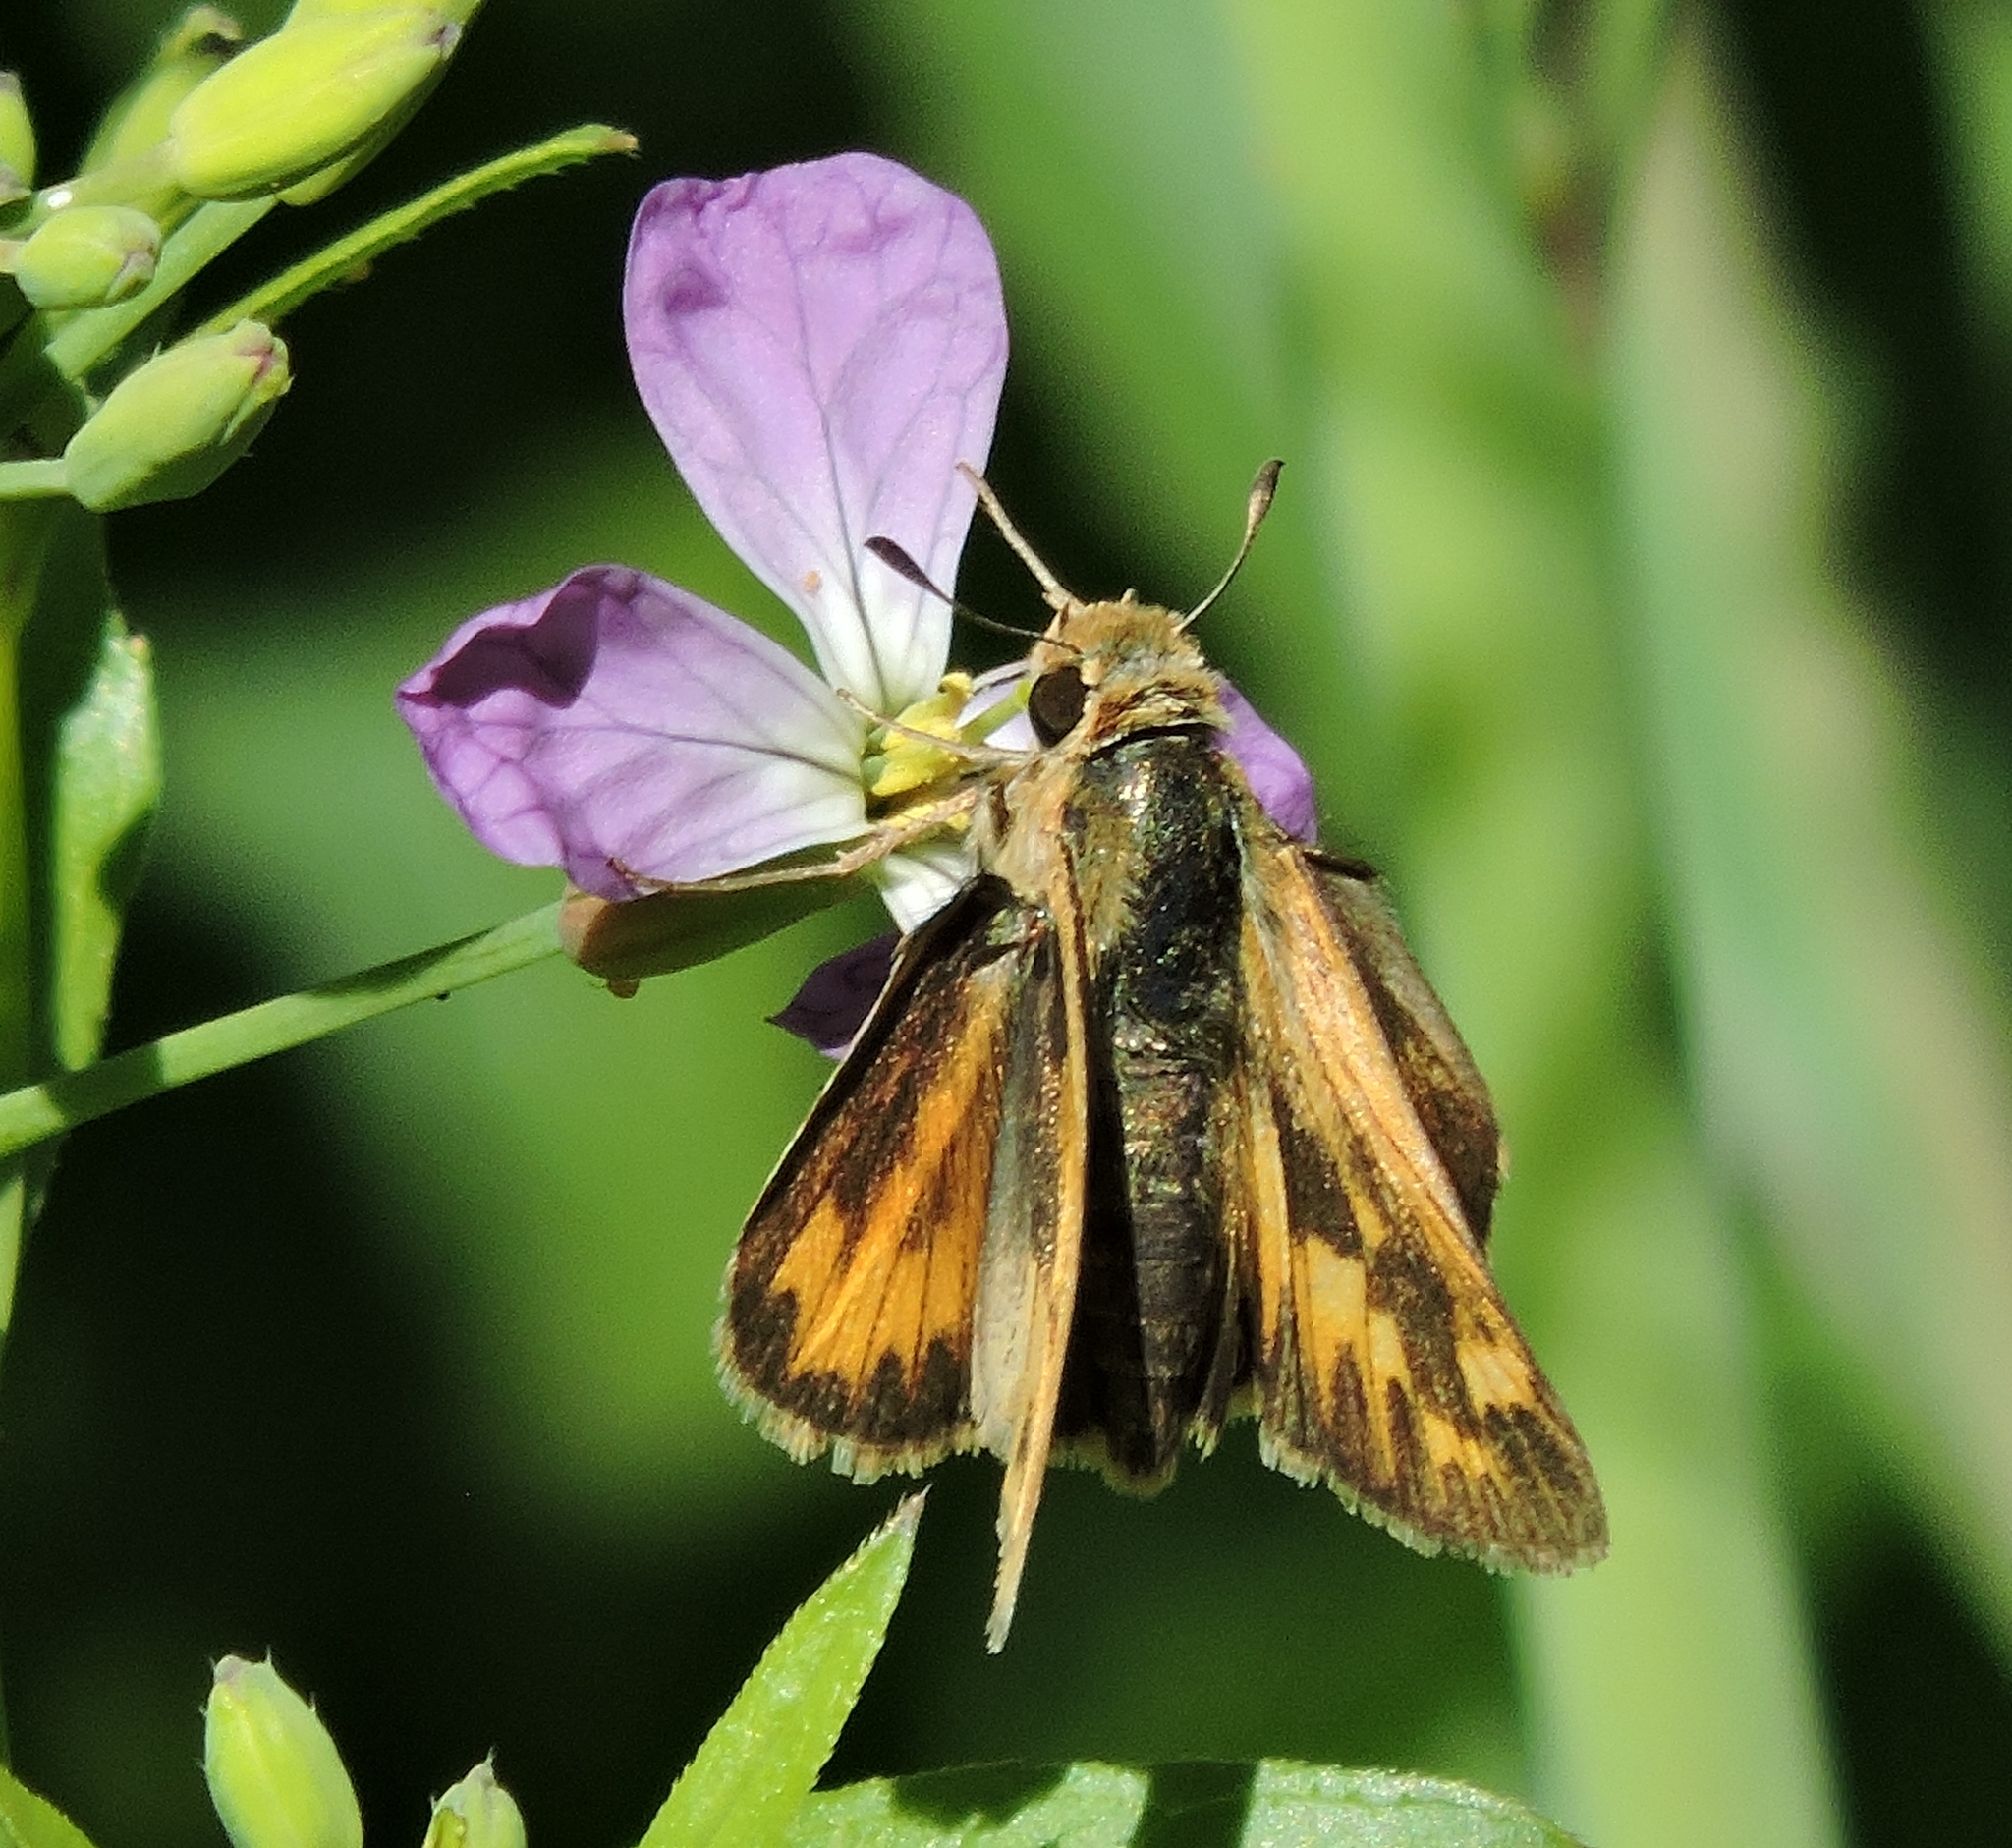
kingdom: Animalia
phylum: Arthropoda
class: Insecta
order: Lepidoptera
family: Hesperiidae
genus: Hylephila
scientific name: Hylephila phyleus
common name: Fiery skipper
